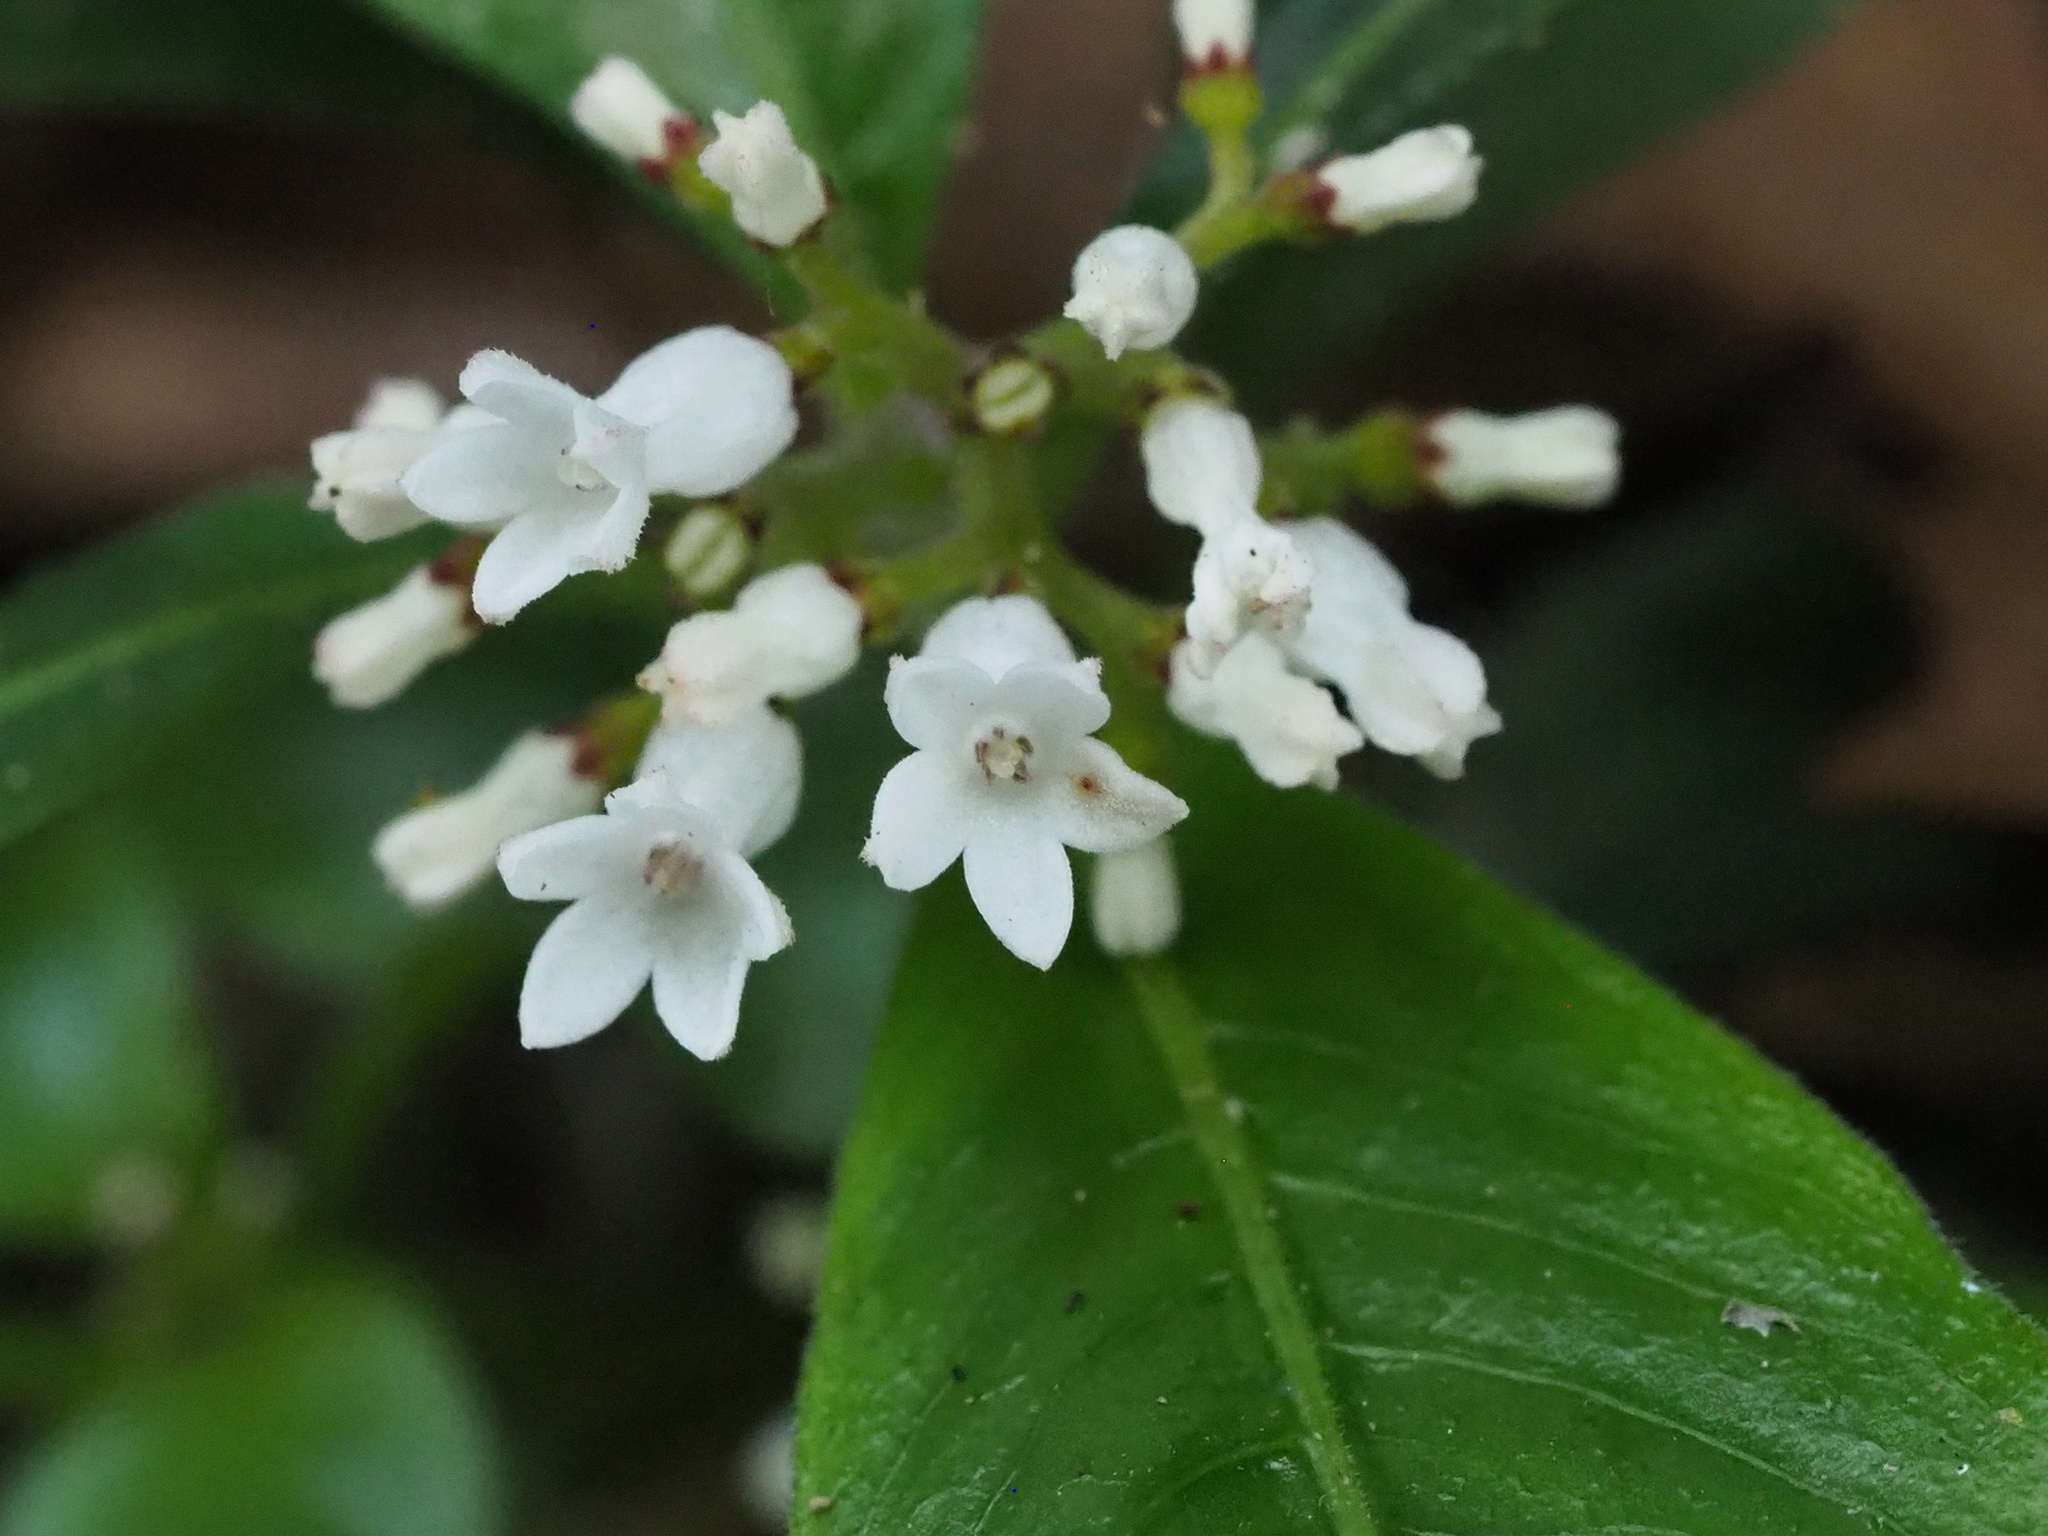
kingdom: Plantae
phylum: Tracheophyta
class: Magnoliopsida
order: Gentianales
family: Rubiaceae
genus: Ophiorrhiza
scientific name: Ophiorrhiza pumila
